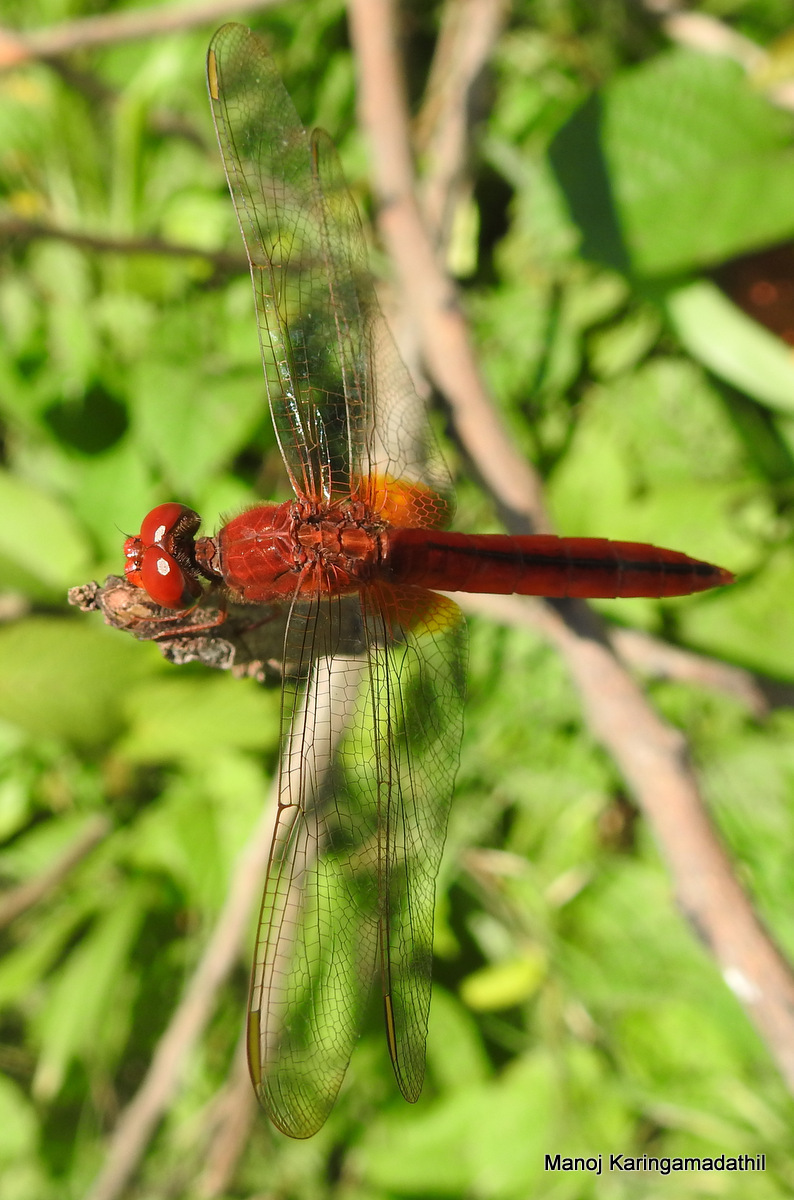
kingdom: Animalia
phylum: Arthropoda
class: Insecta
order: Odonata
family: Libellulidae
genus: Crocothemis
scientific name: Crocothemis servilia
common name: Scarlet skimmer
